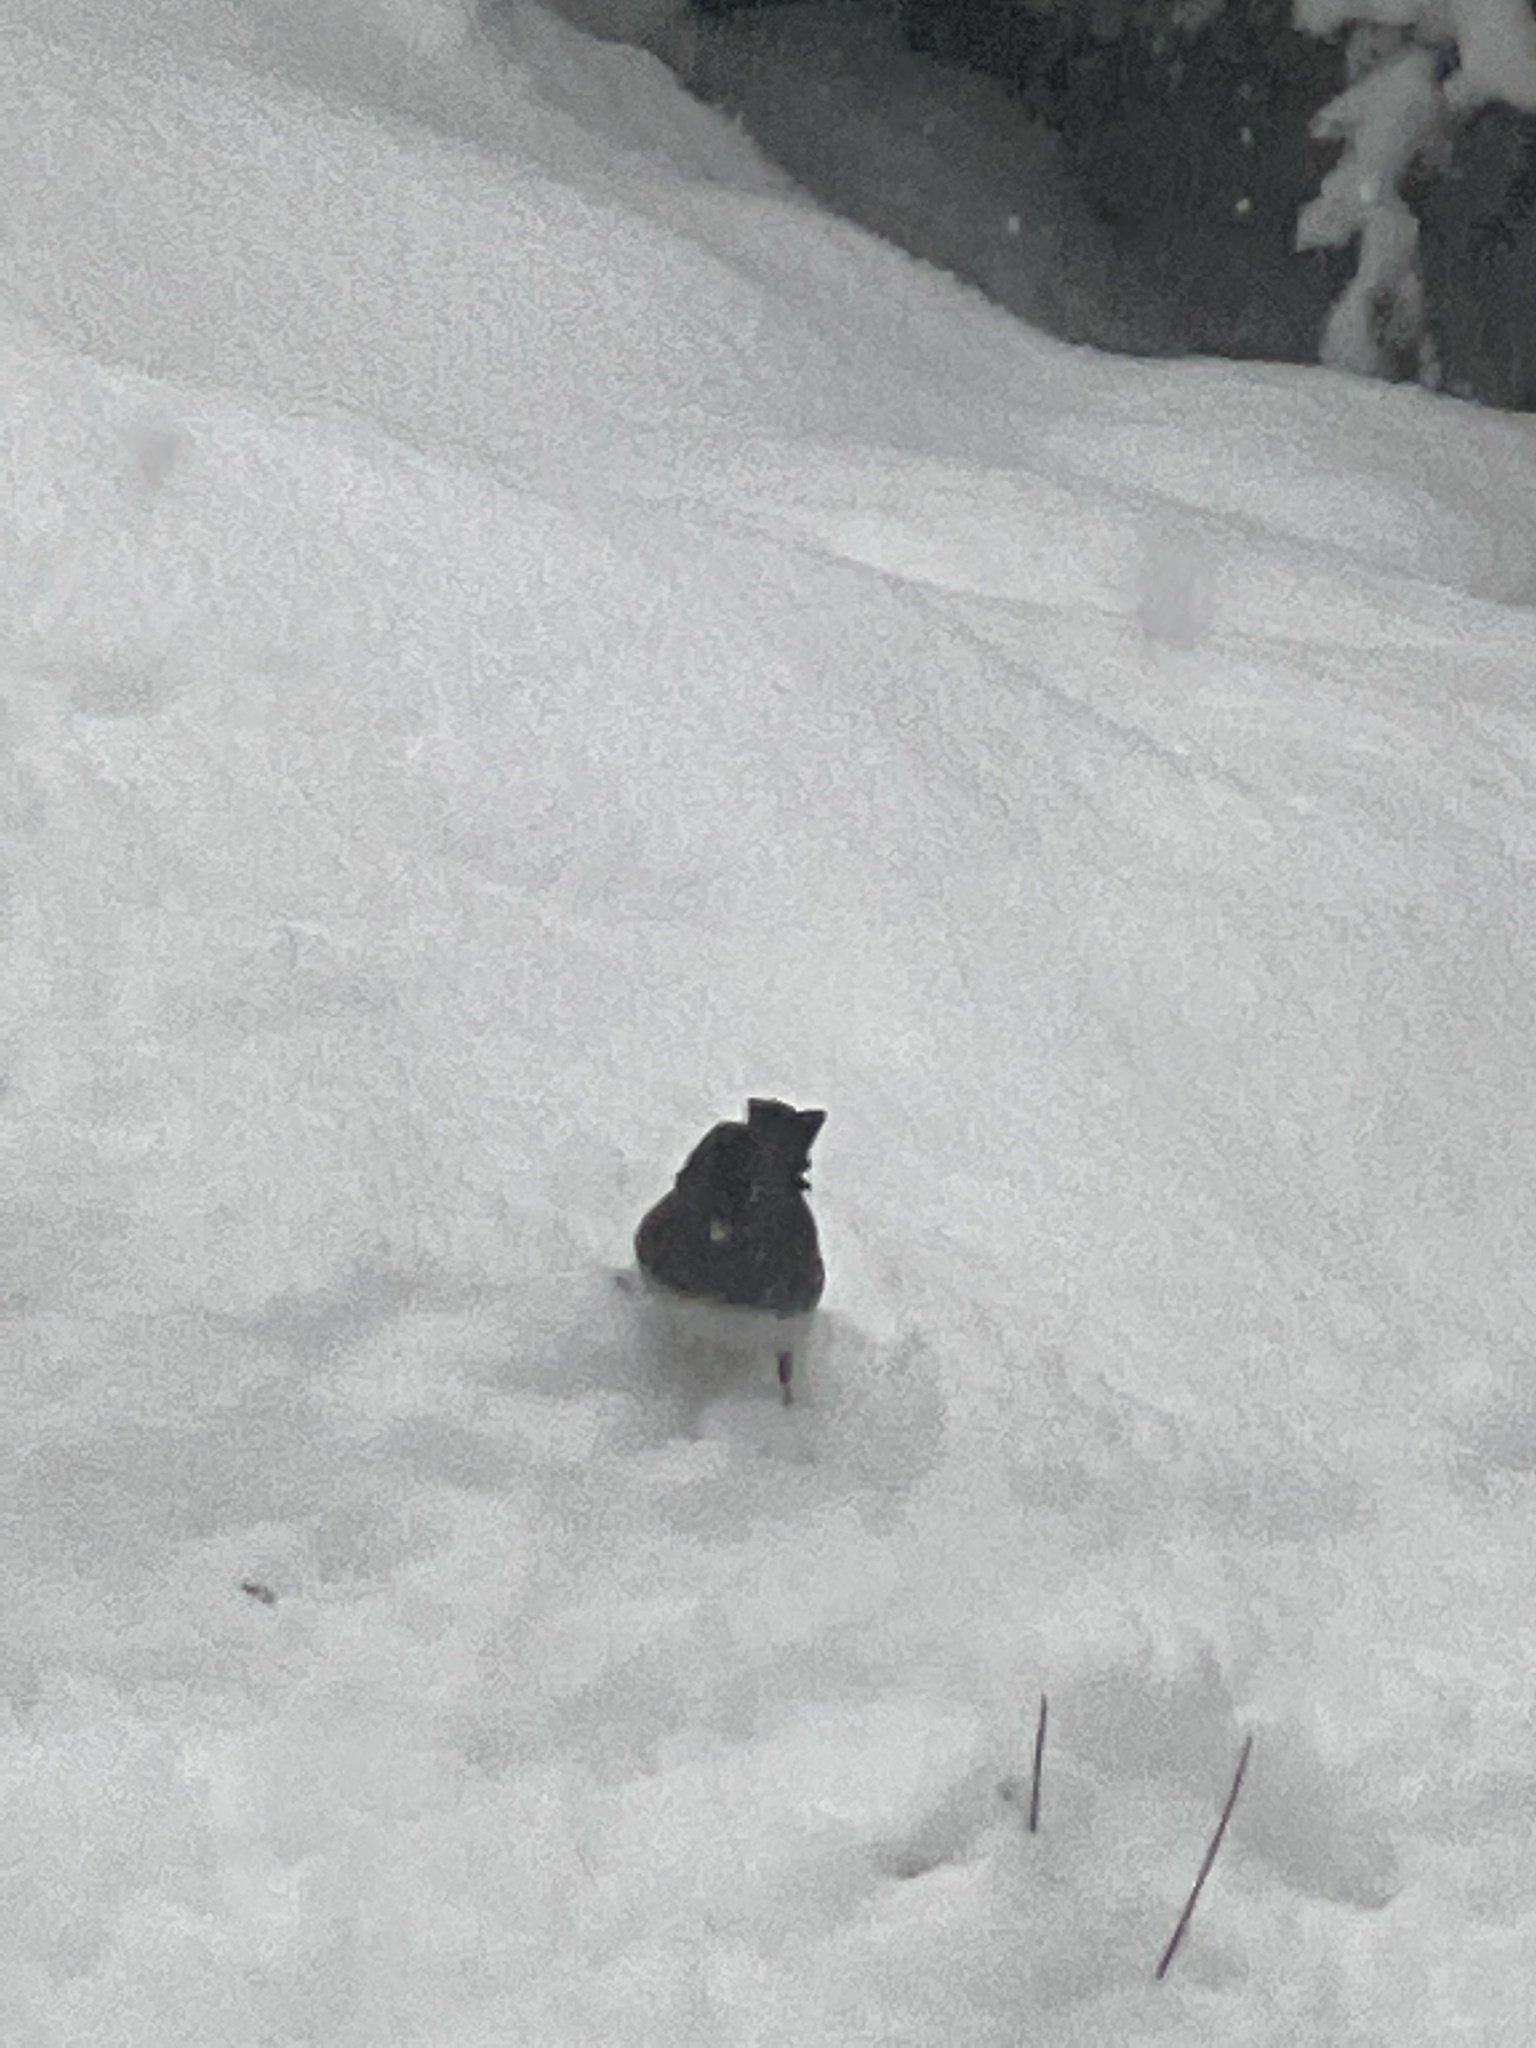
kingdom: Animalia
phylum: Chordata
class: Aves
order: Passeriformes
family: Passerellidae
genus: Junco
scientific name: Junco hyemalis
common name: Dark-eyed junco
